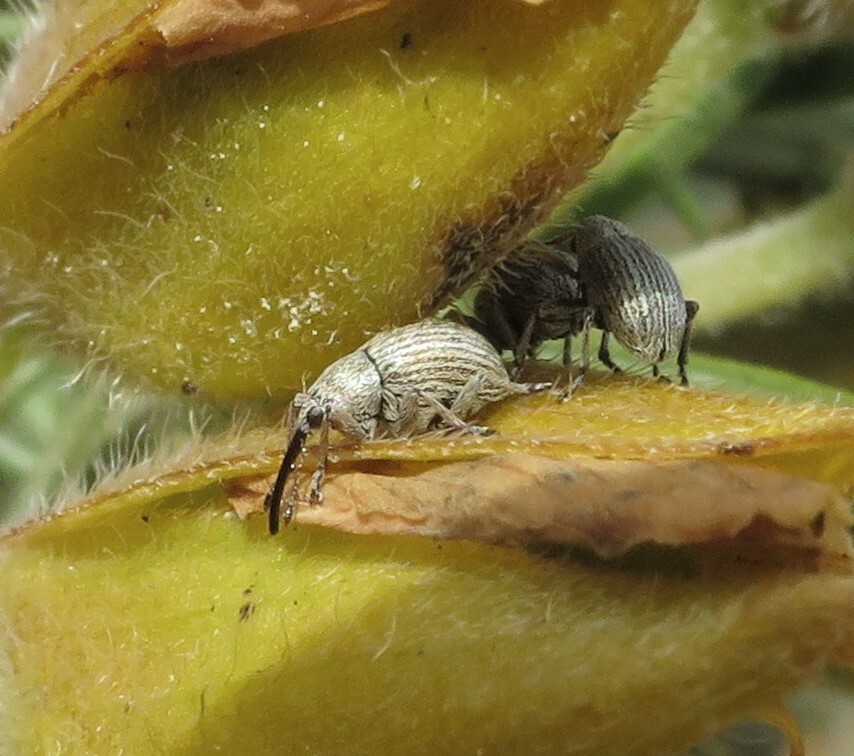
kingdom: Animalia
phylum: Arthropoda
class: Insecta
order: Coleoptera
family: Brentidae
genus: Exapion
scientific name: Exapion ulicis
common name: Gorse seed weevil
